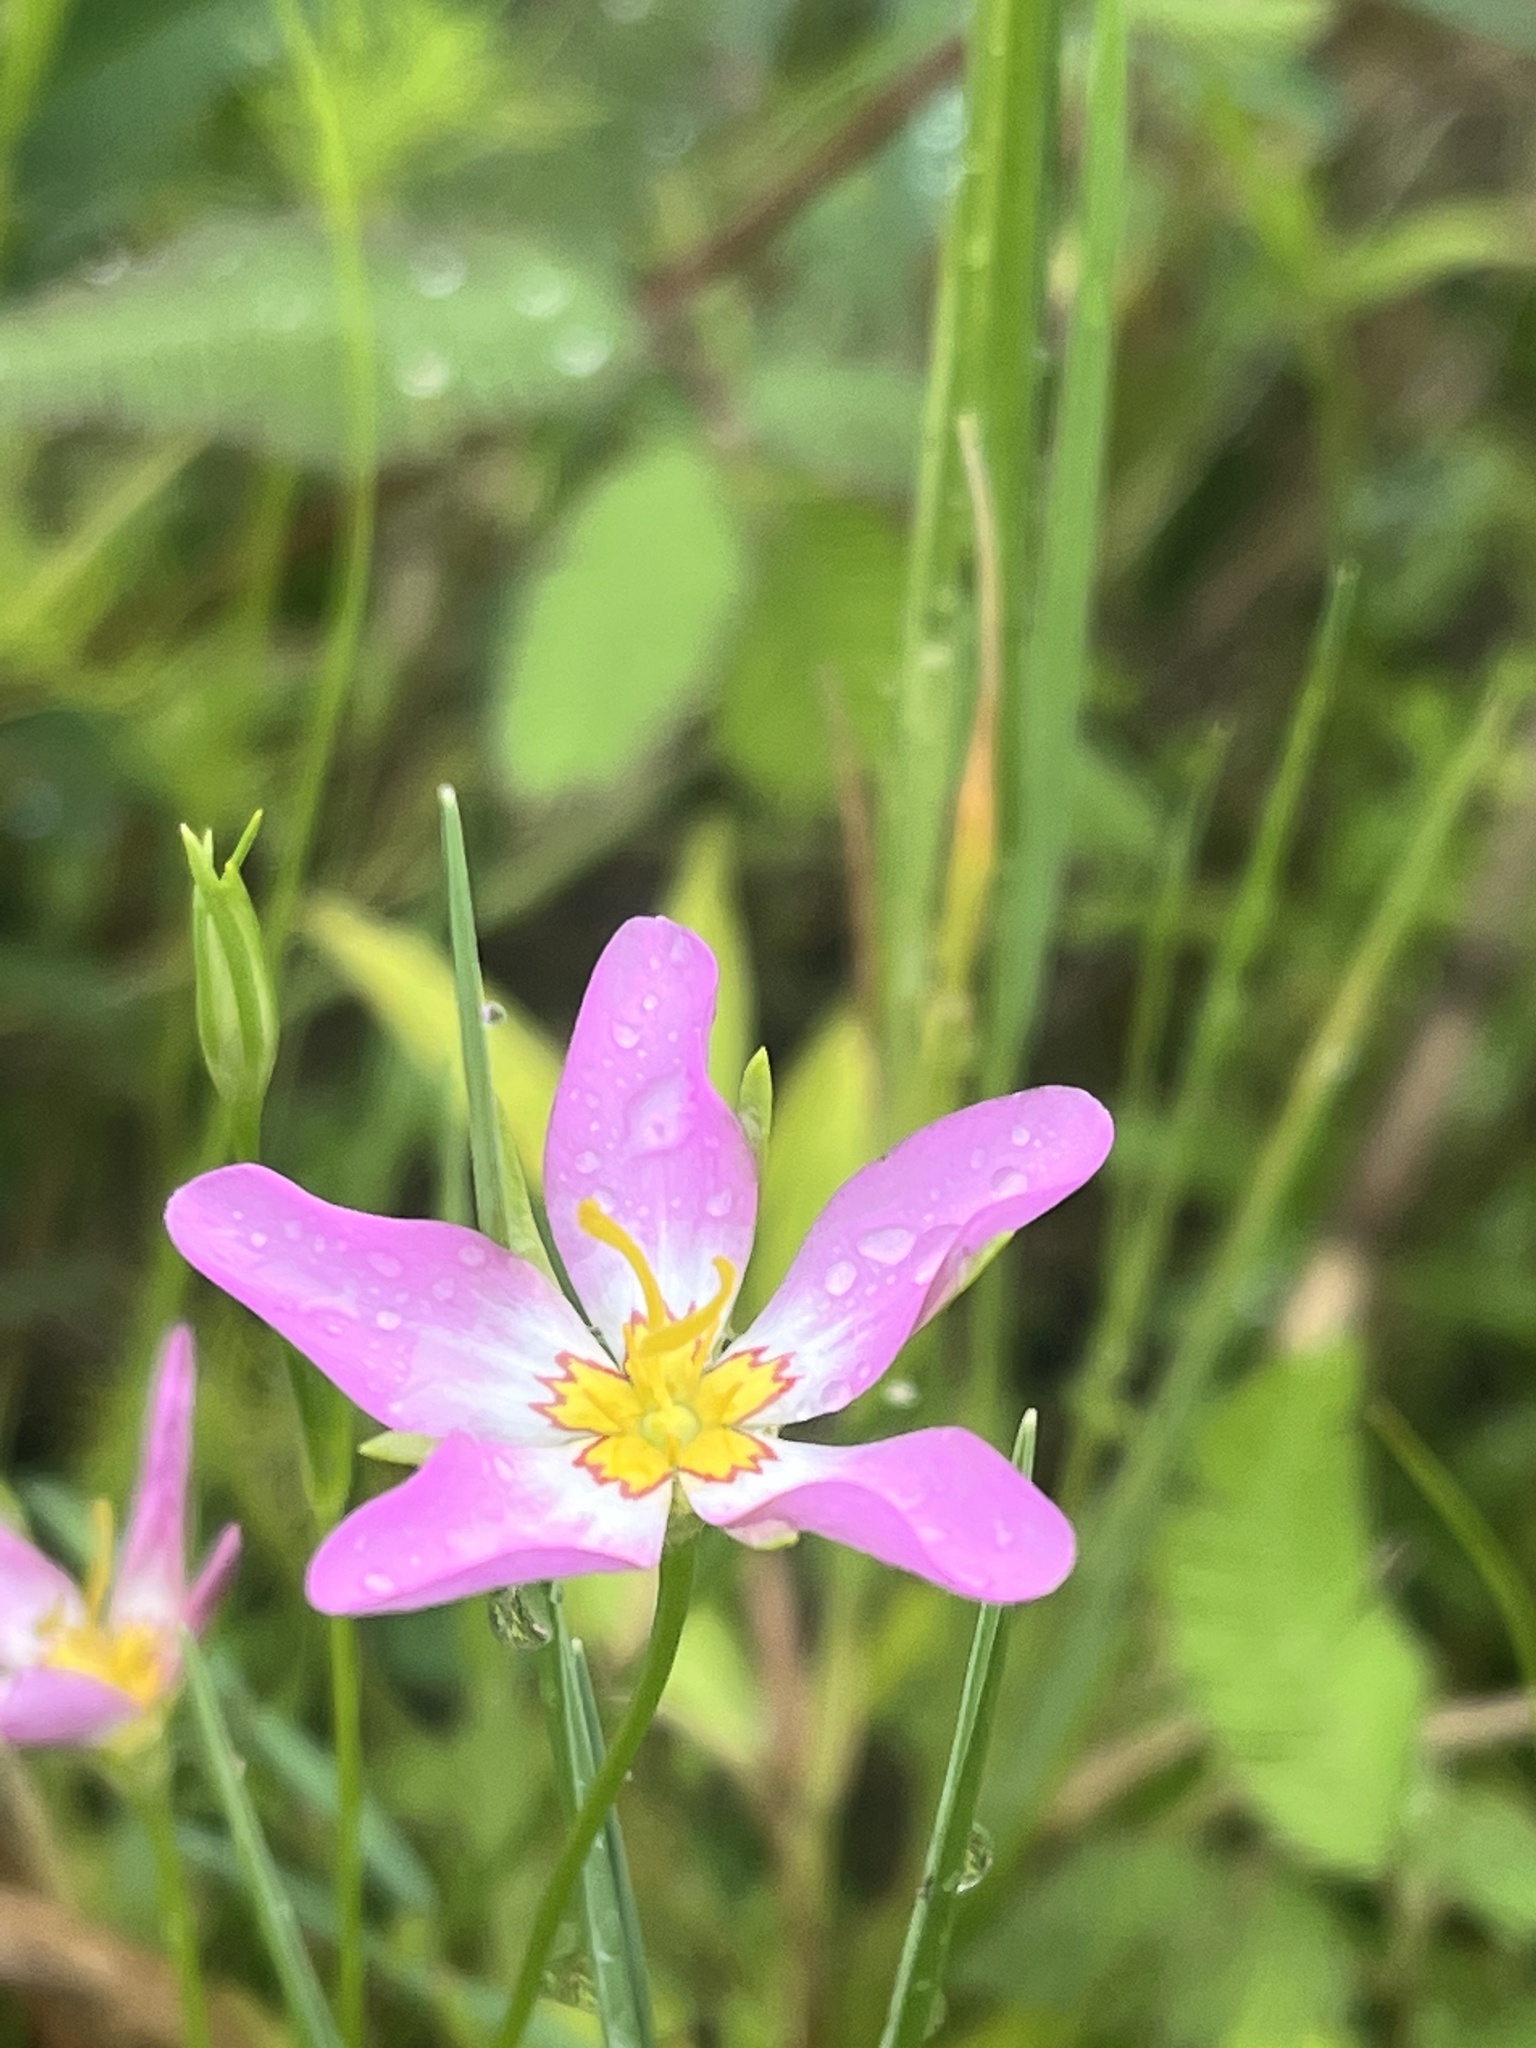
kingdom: Plantae
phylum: Tracheophyta
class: Magnoliopsida
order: Gentianales
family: Gentianaceae
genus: Sabatia
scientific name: Sabatia stellaris
